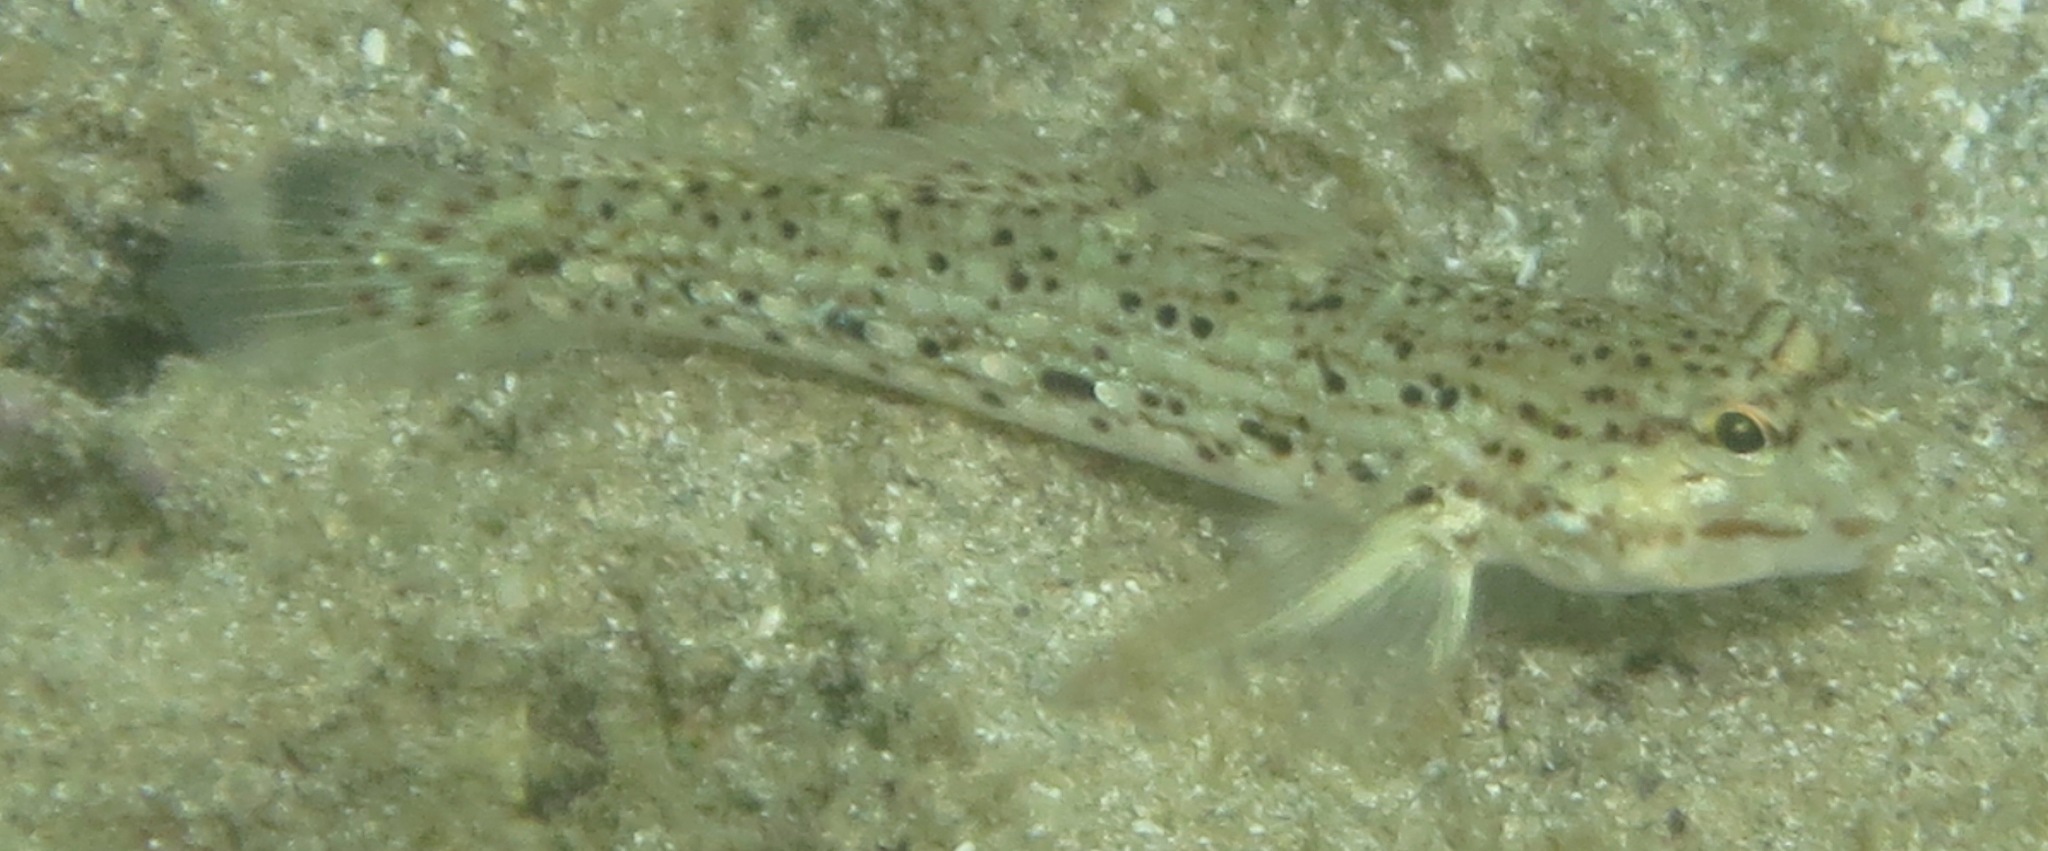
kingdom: Animalia
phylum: Chordata
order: Perciformes
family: Gobiidae
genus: Istigobius
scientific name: Istigobius goldmanni
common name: Goldman's goby
